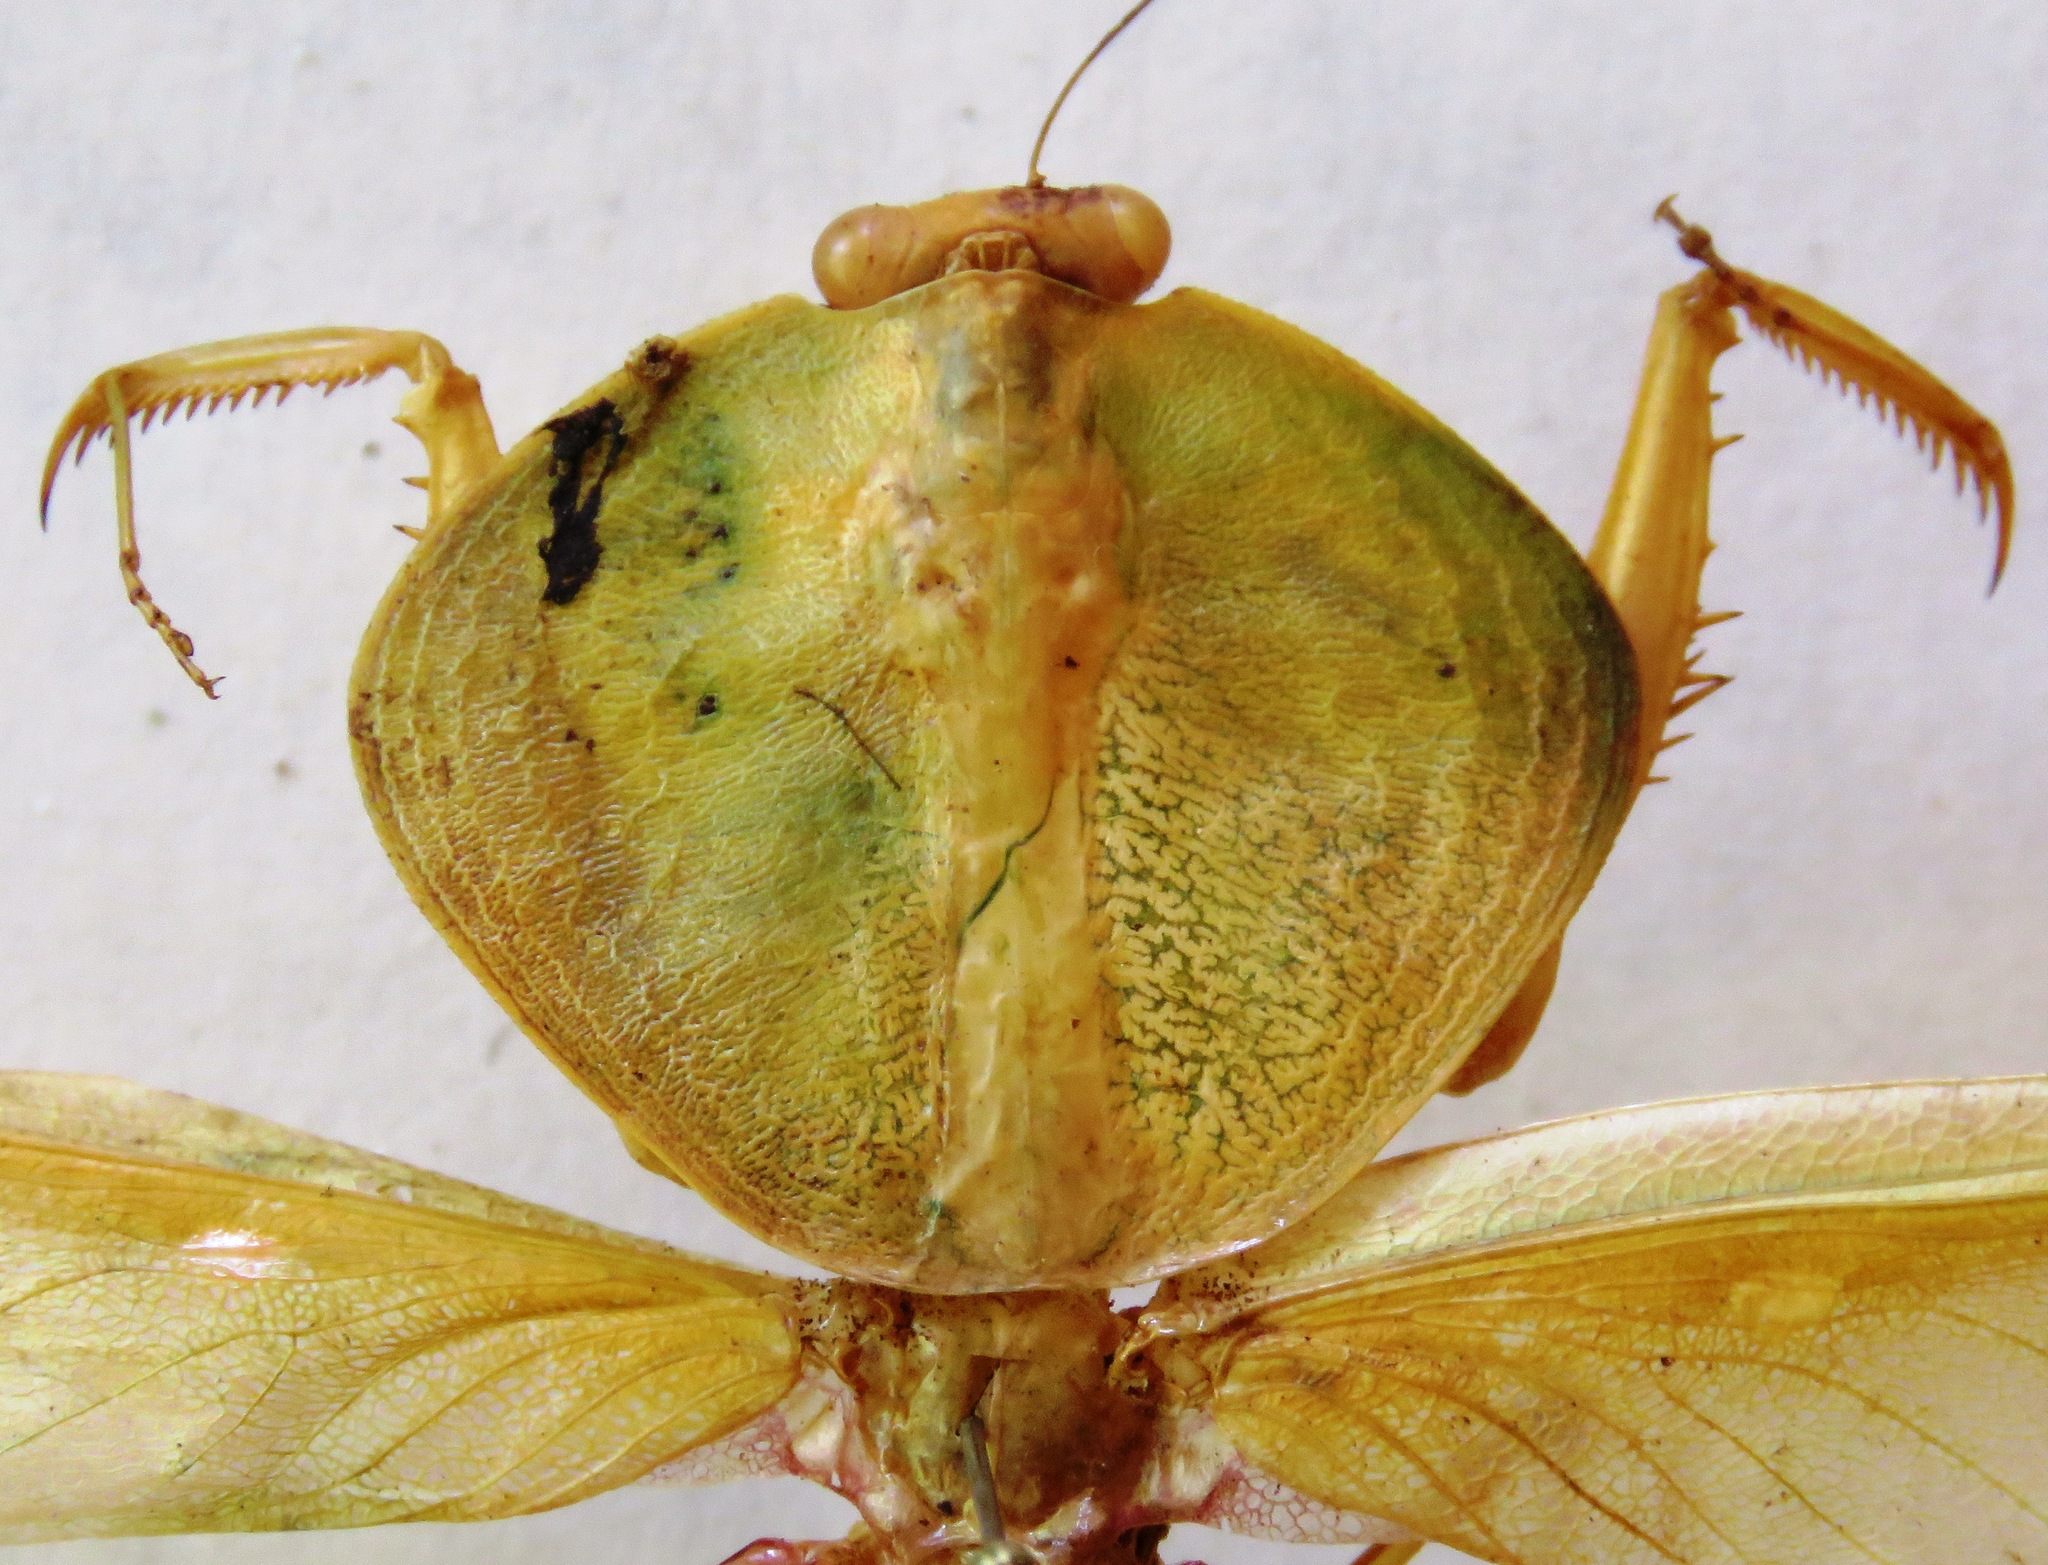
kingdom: Animalia
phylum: Arthropoda
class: Insecta
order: Mantodea
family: Mantidae
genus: Choeradodis
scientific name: Choeradodis rhombicollis
